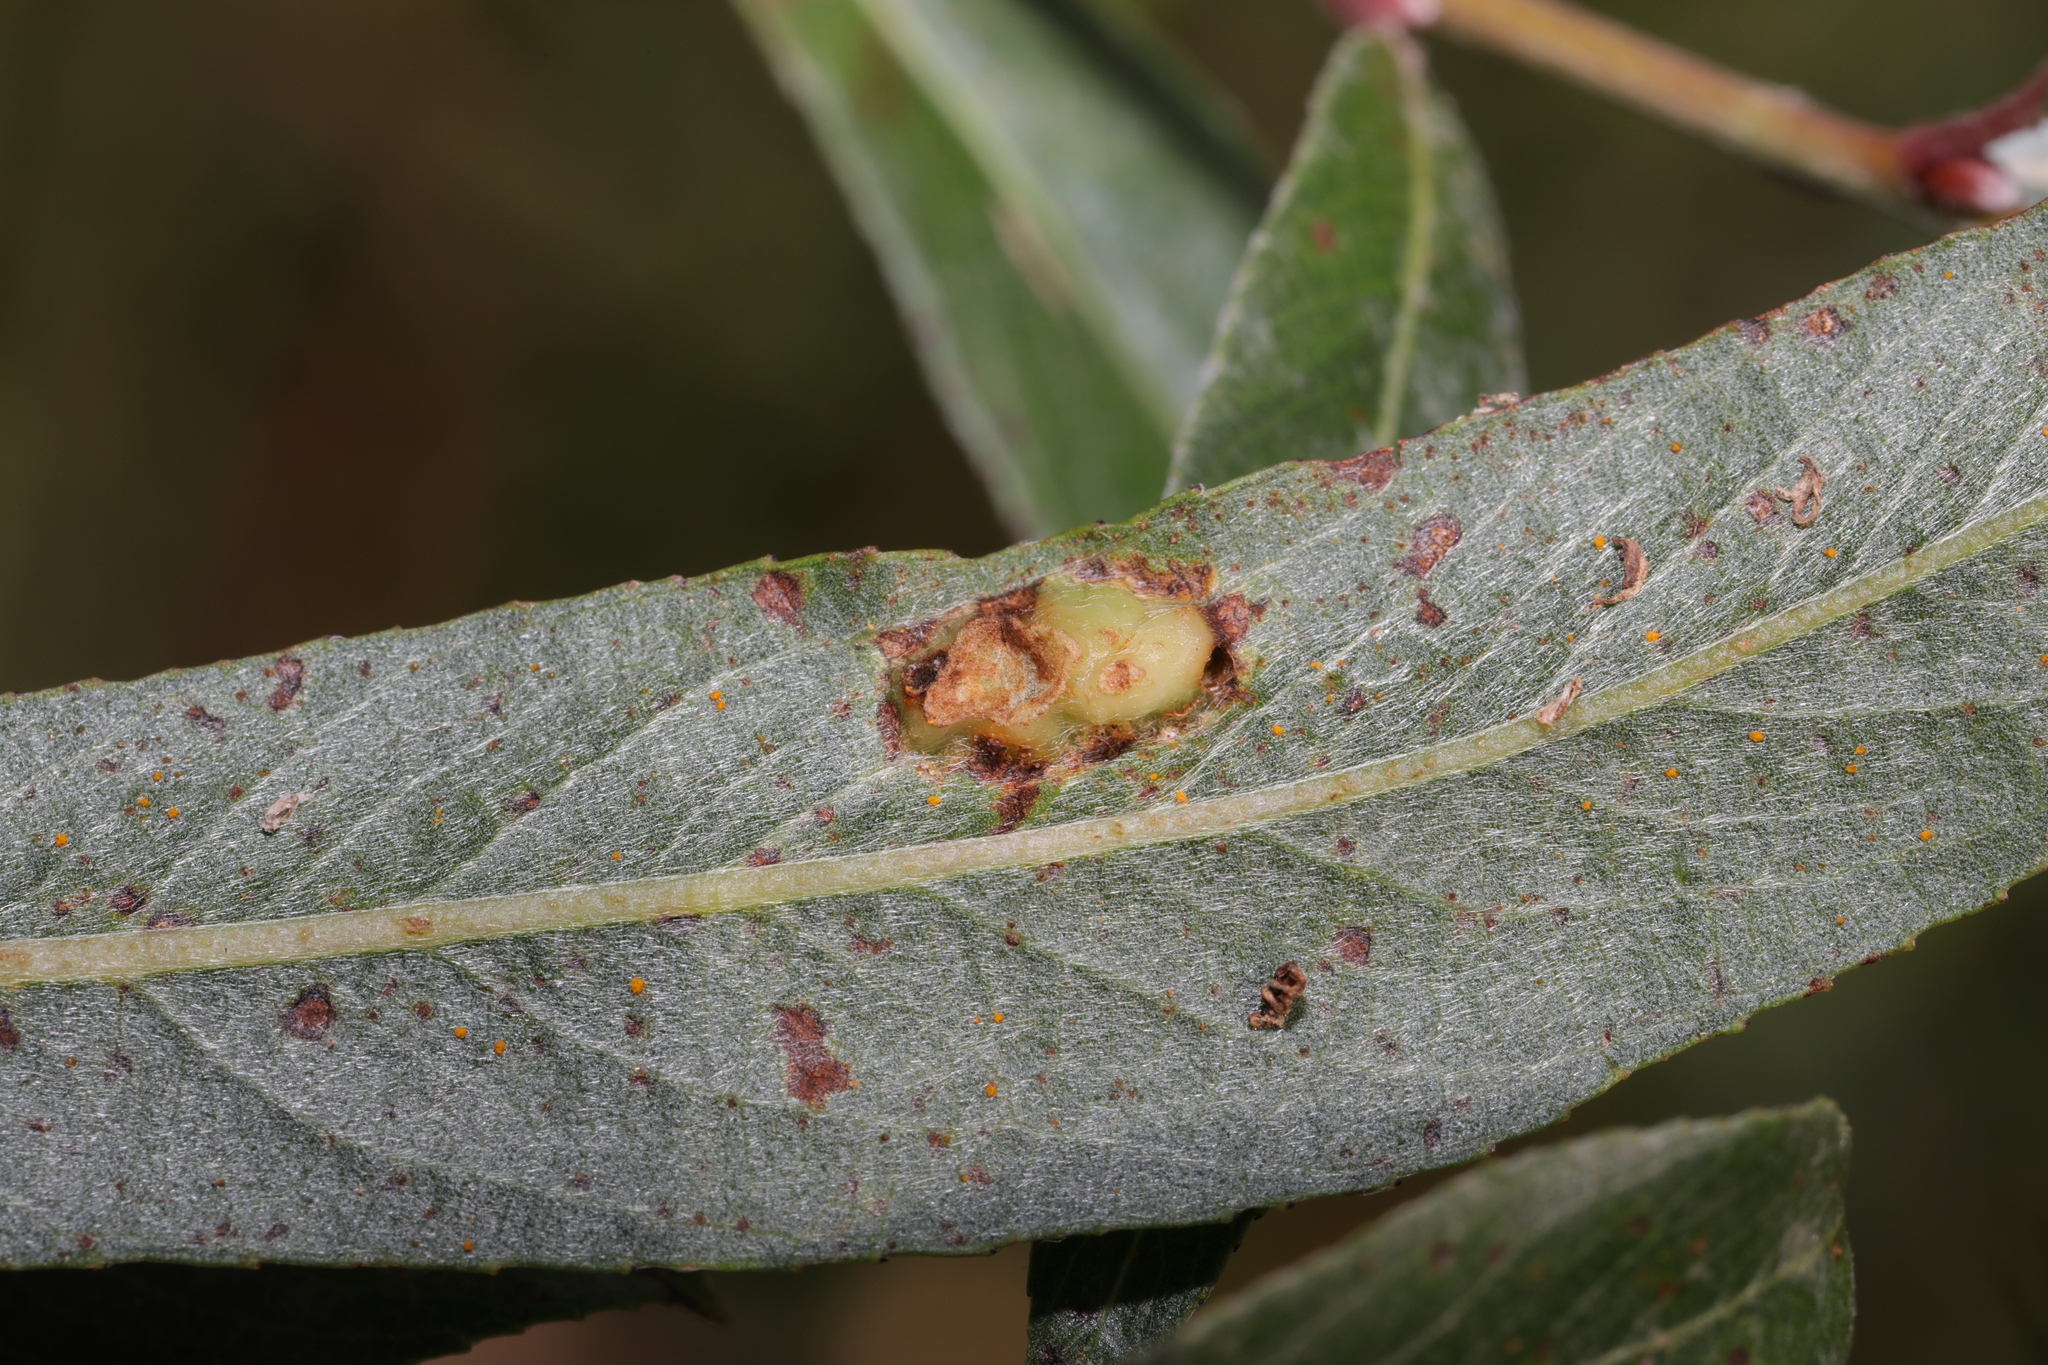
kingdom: Animalia
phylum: Arthropoda
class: Insecta
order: Hymenoptera
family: Tenthredinidae
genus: Pontania
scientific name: Pontania proxima
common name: Common sawfly
